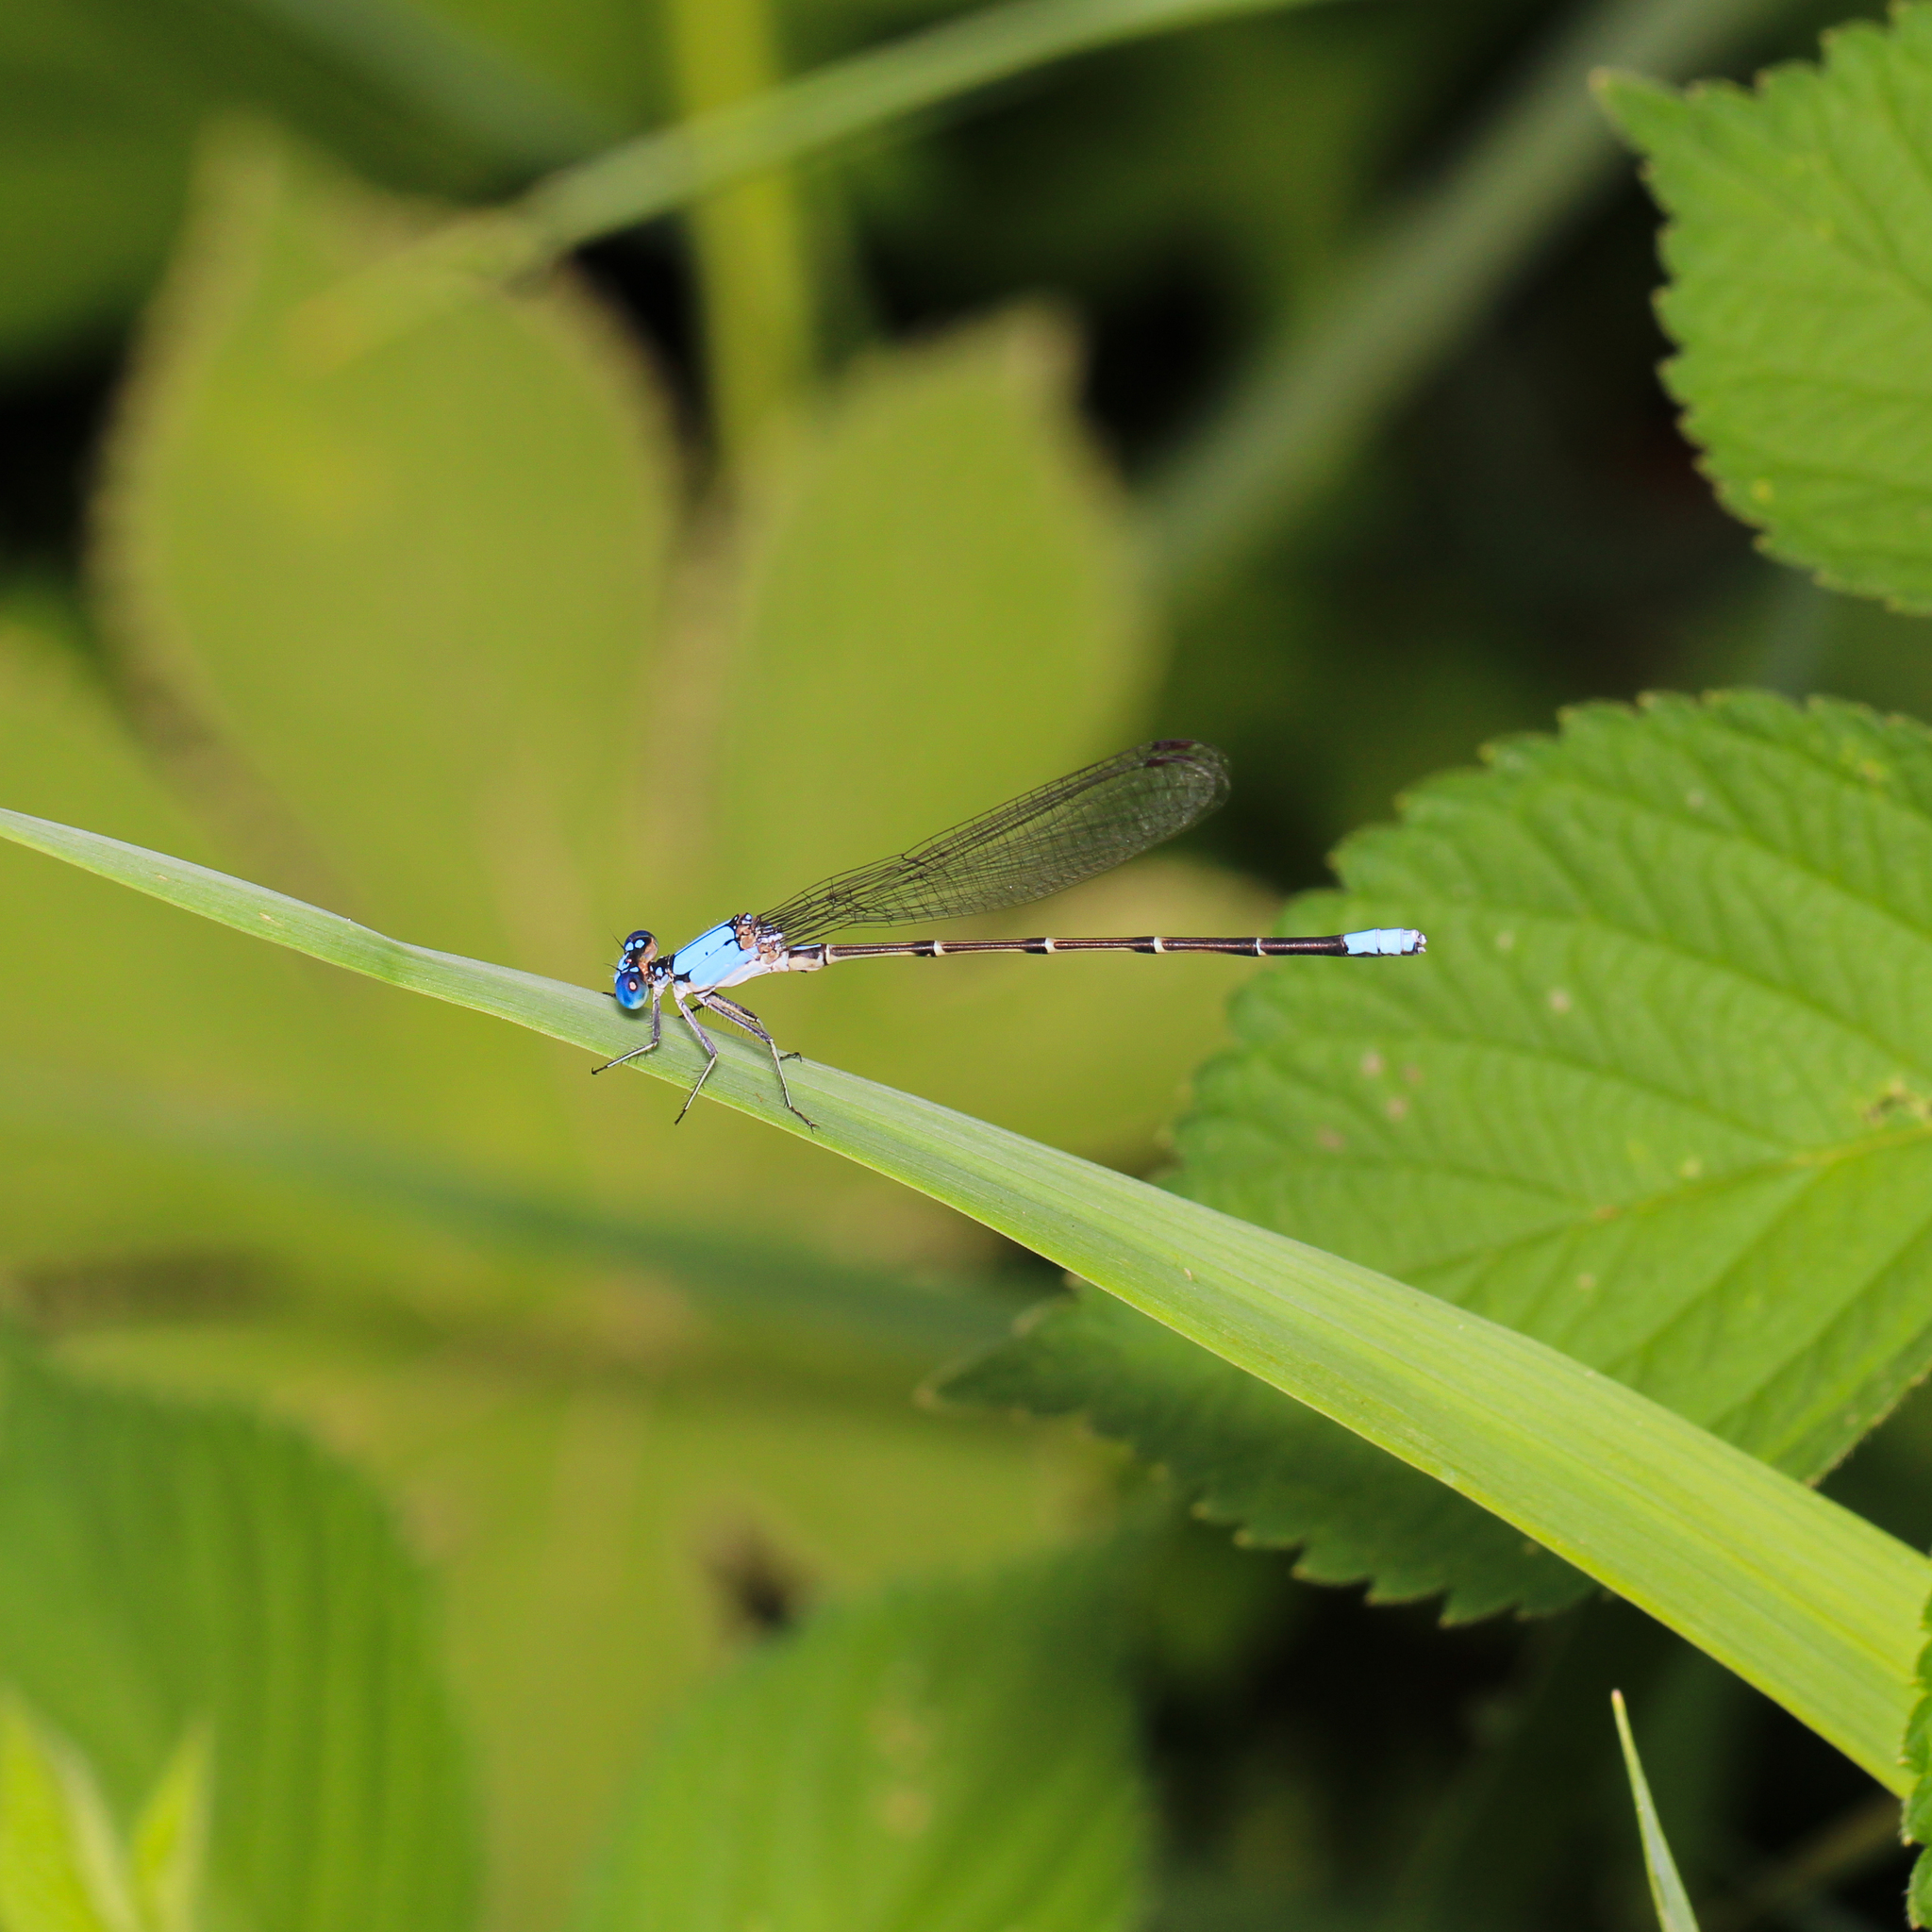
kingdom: Animalia
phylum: Arthropoda
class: Insecta
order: Odonata
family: Coenagrionidae
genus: Argia
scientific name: Argia apicalis
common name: Blue-fronted dancer
